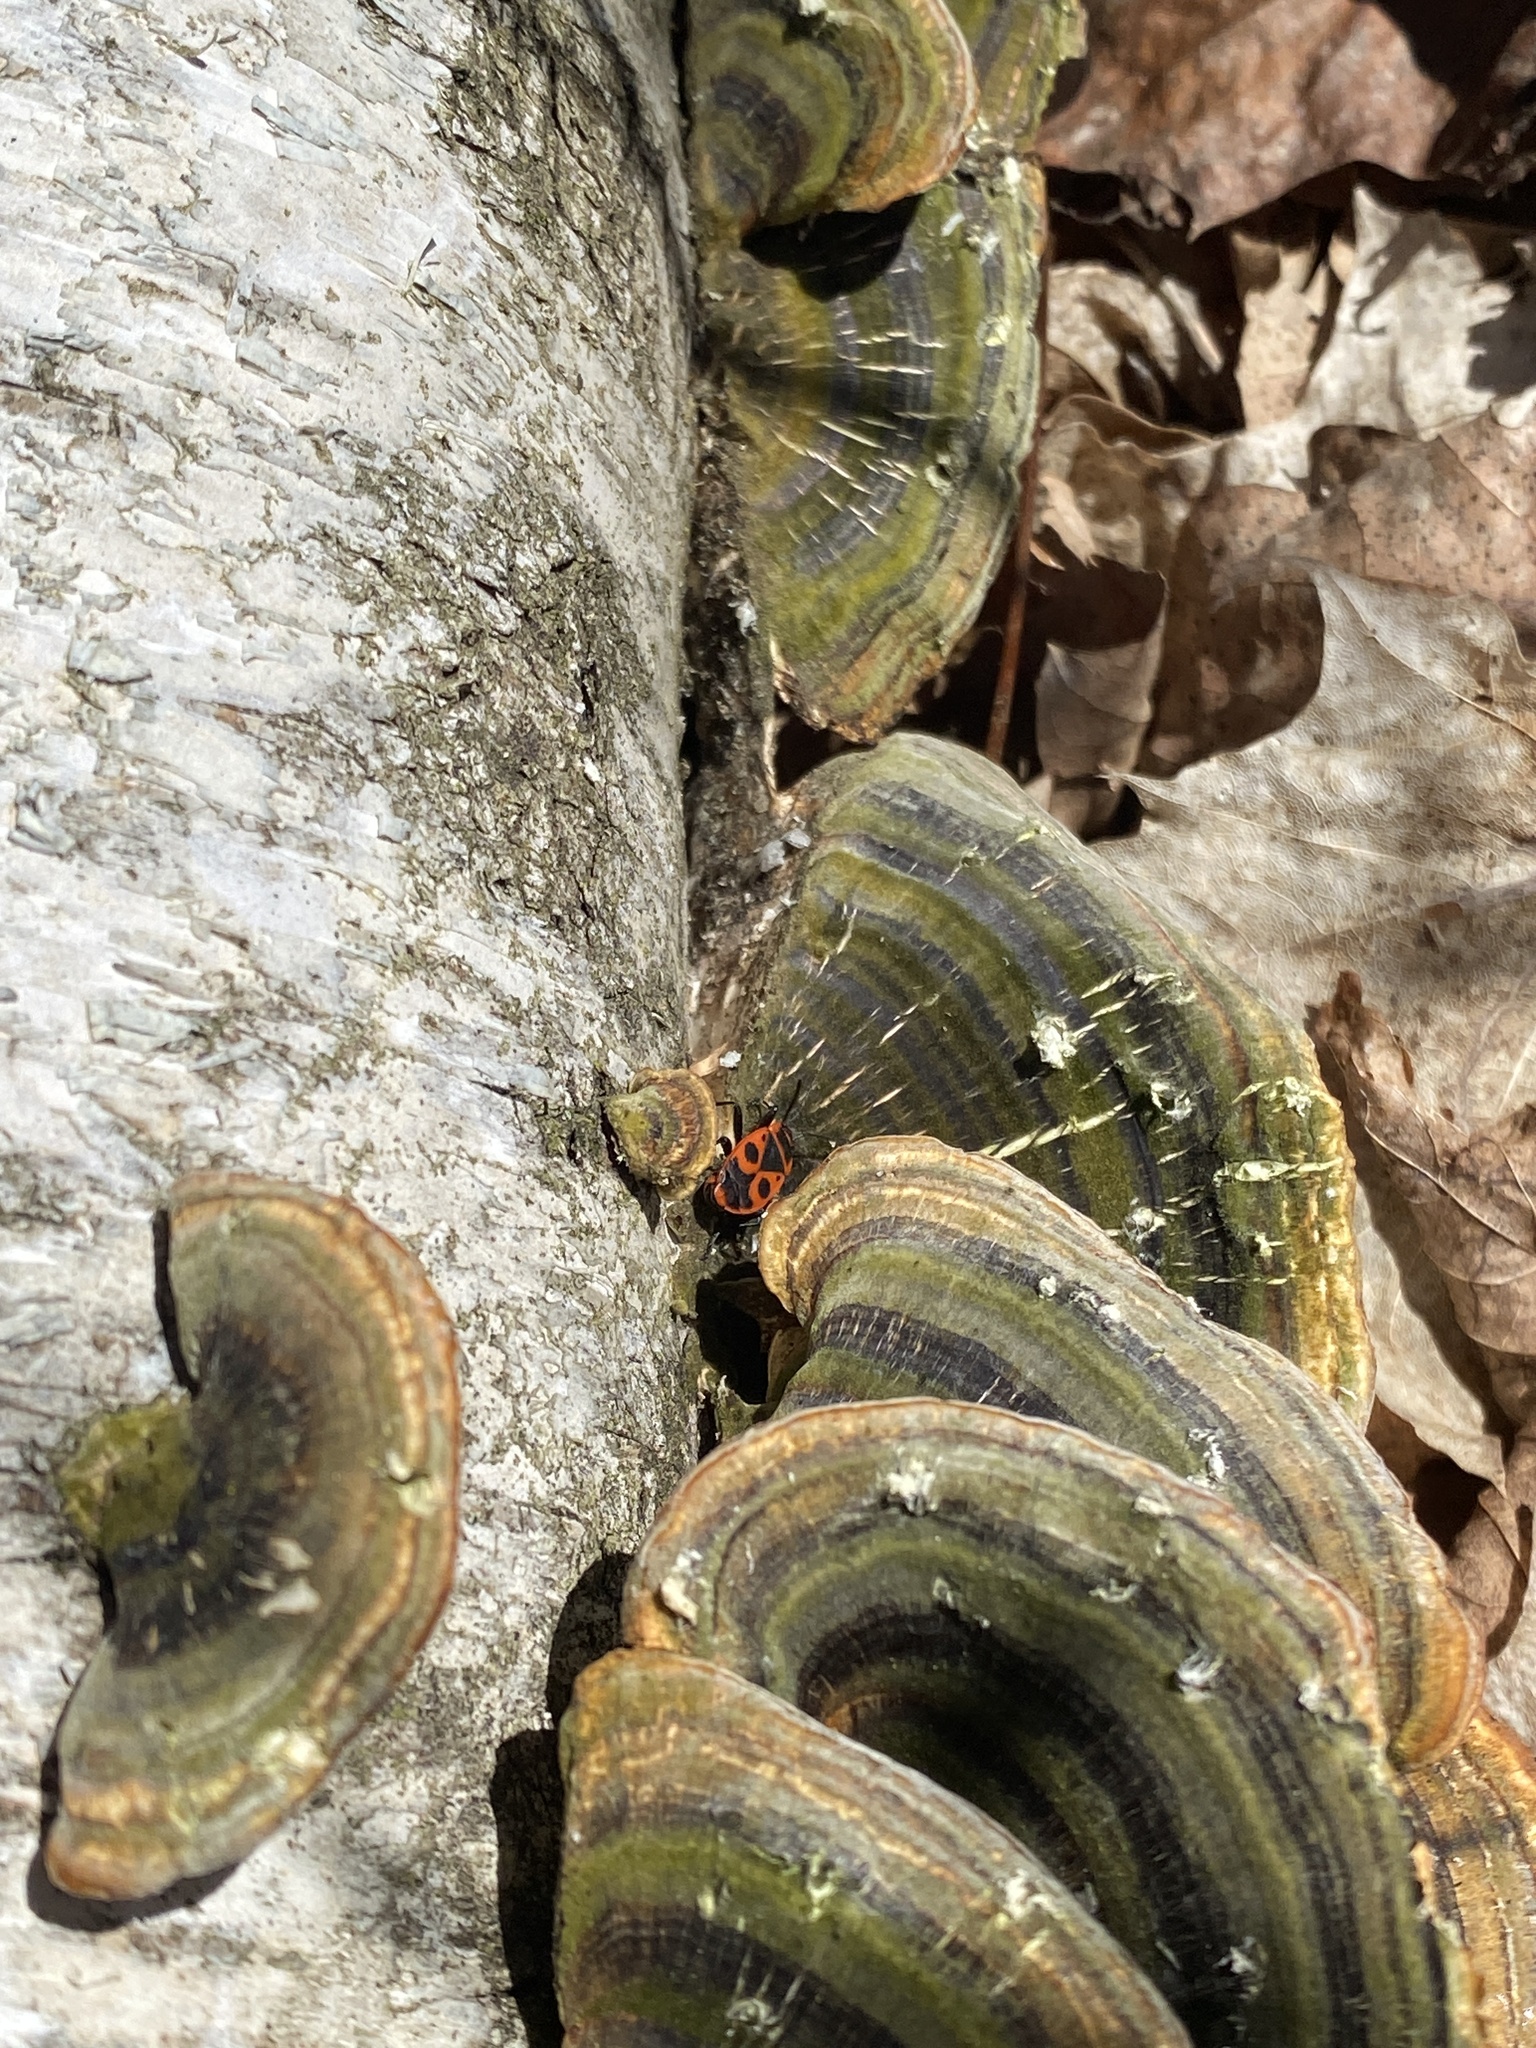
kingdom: Animalia
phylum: Arthropoda
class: Insecta
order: Hemiptera
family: Pyrrhocoridae
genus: Pyrrhocoris
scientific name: Pyrrhocoris apterus
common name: Firebug
